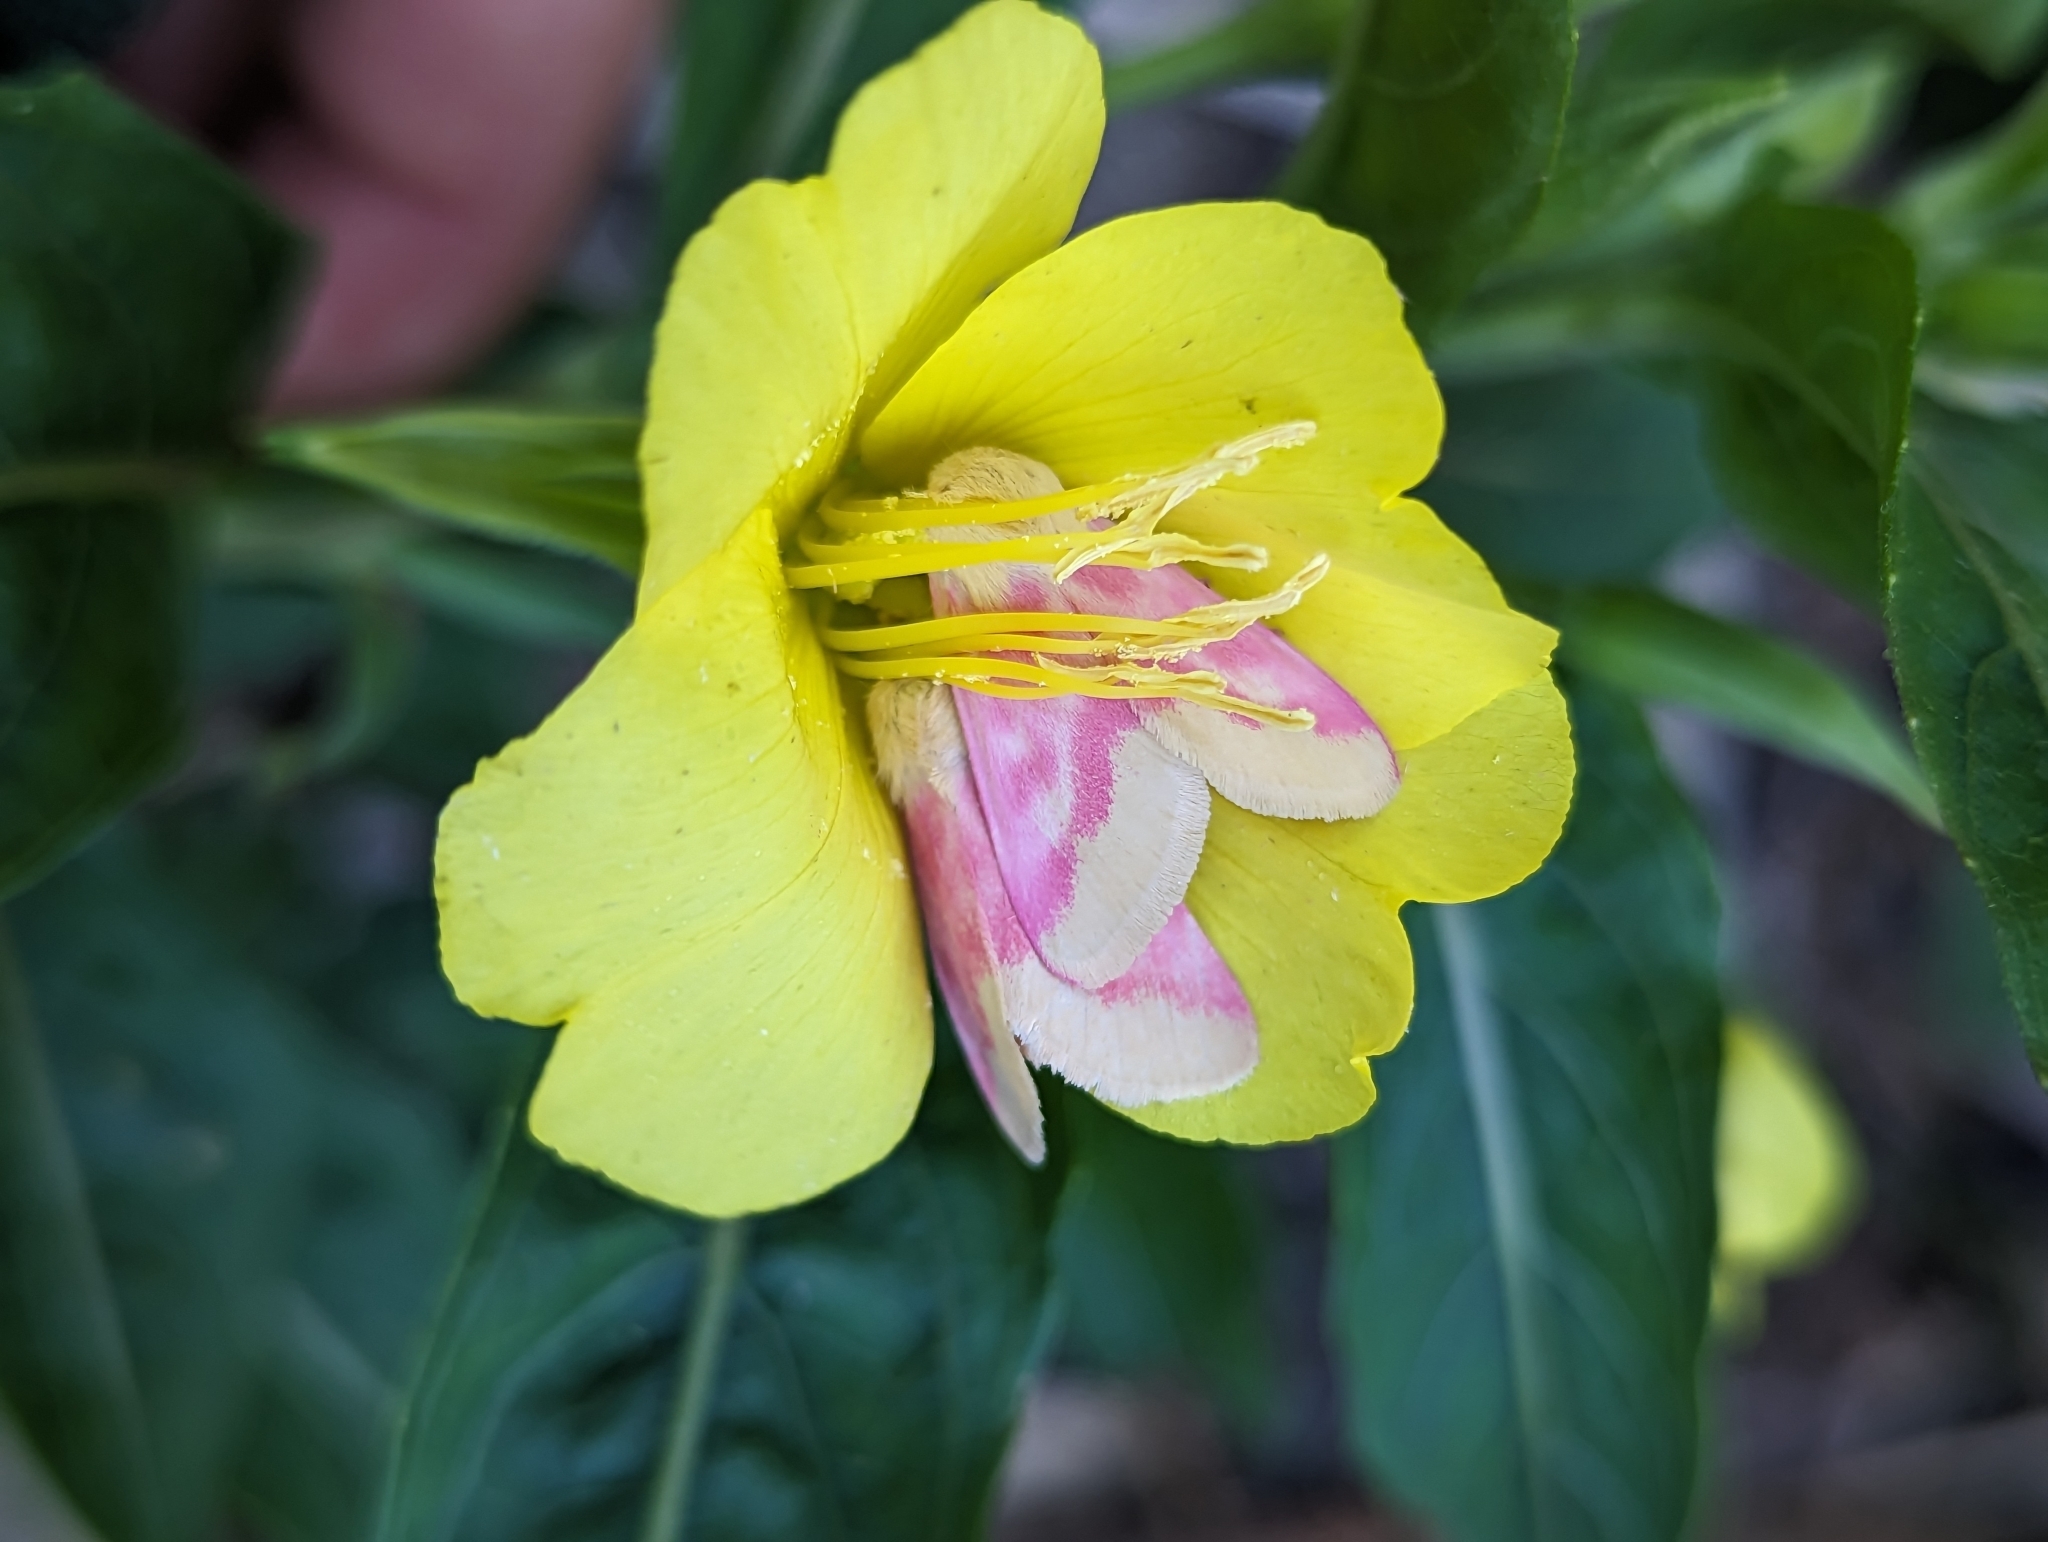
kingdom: Animalia
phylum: Arthropoda
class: Insecta
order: Lepidoptera
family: Noctuidae
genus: Schinia
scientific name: Schinia florida
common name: Primrose moth
